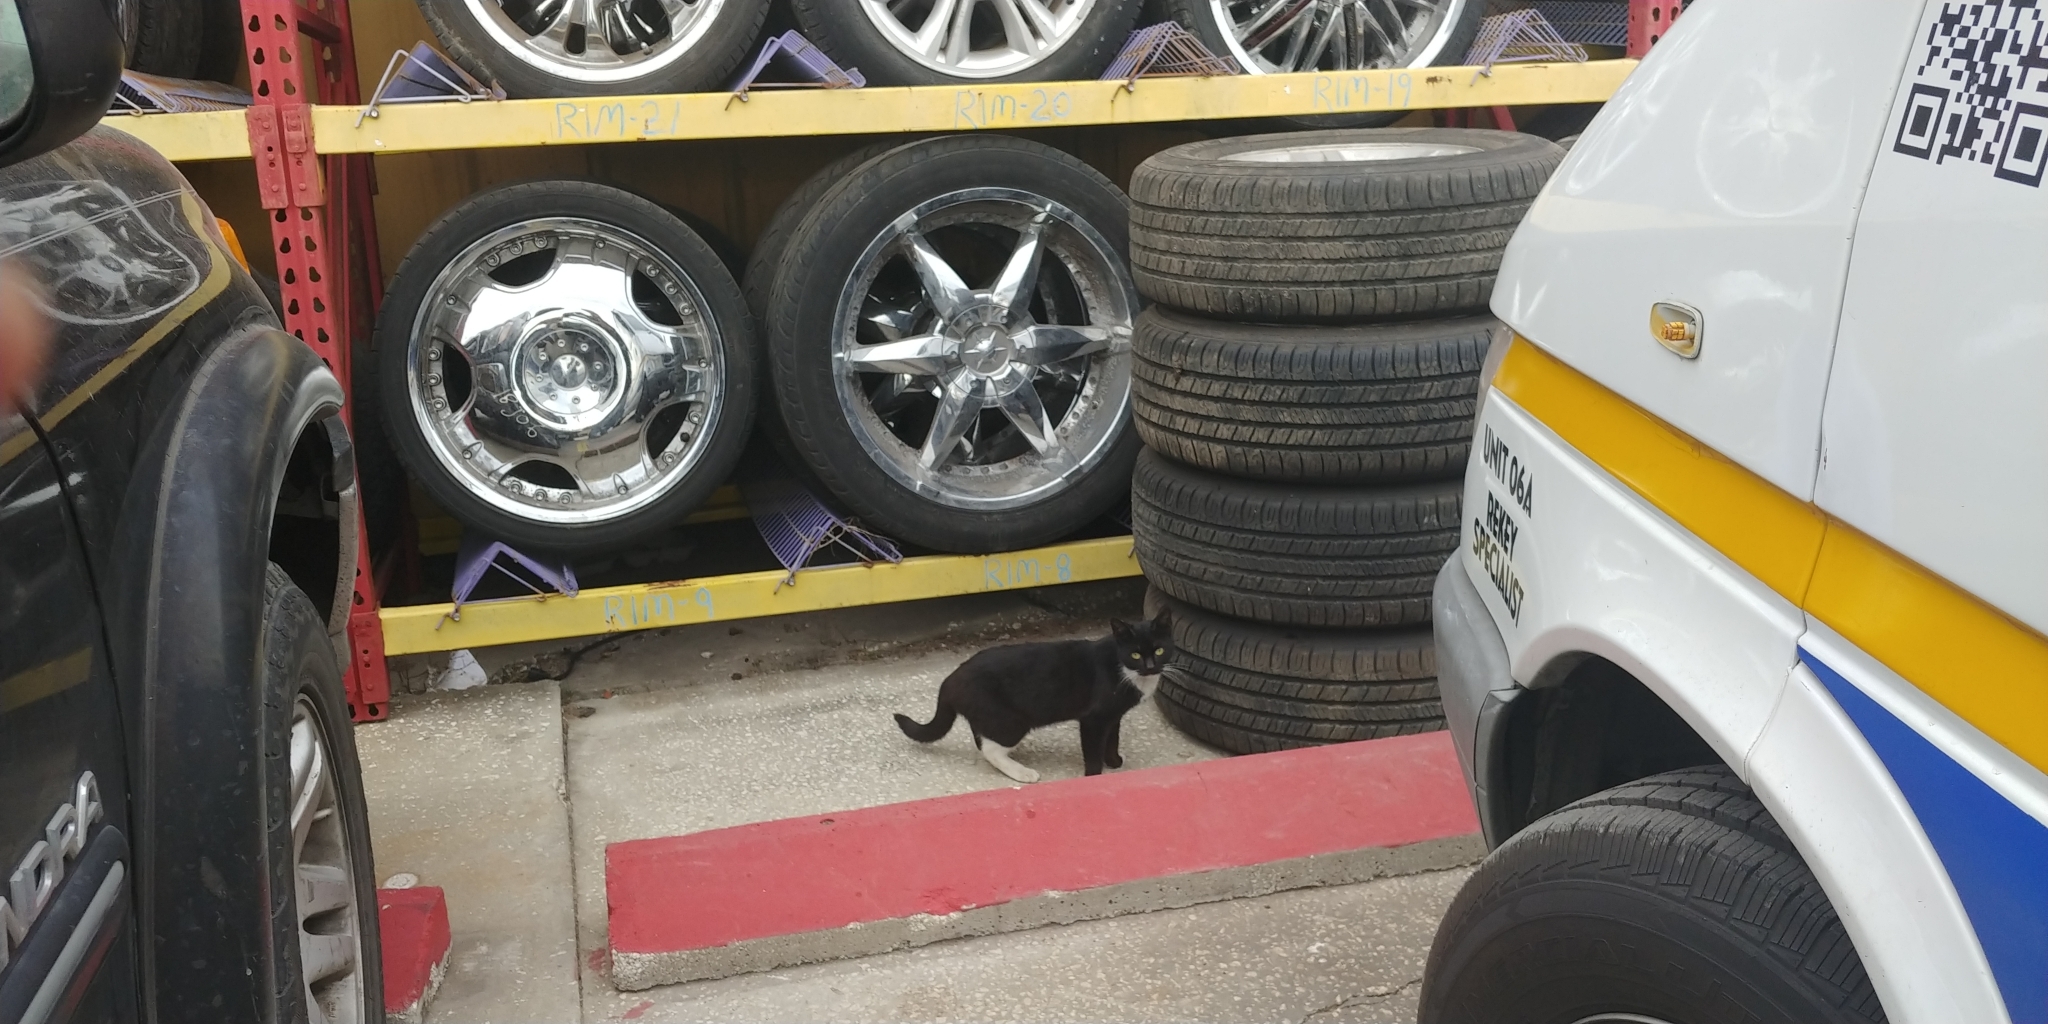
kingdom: Animalia
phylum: Chordata
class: Mammalia
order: Carnivora
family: Felidae
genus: Felis
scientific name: Felis catus
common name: Domestic cat
